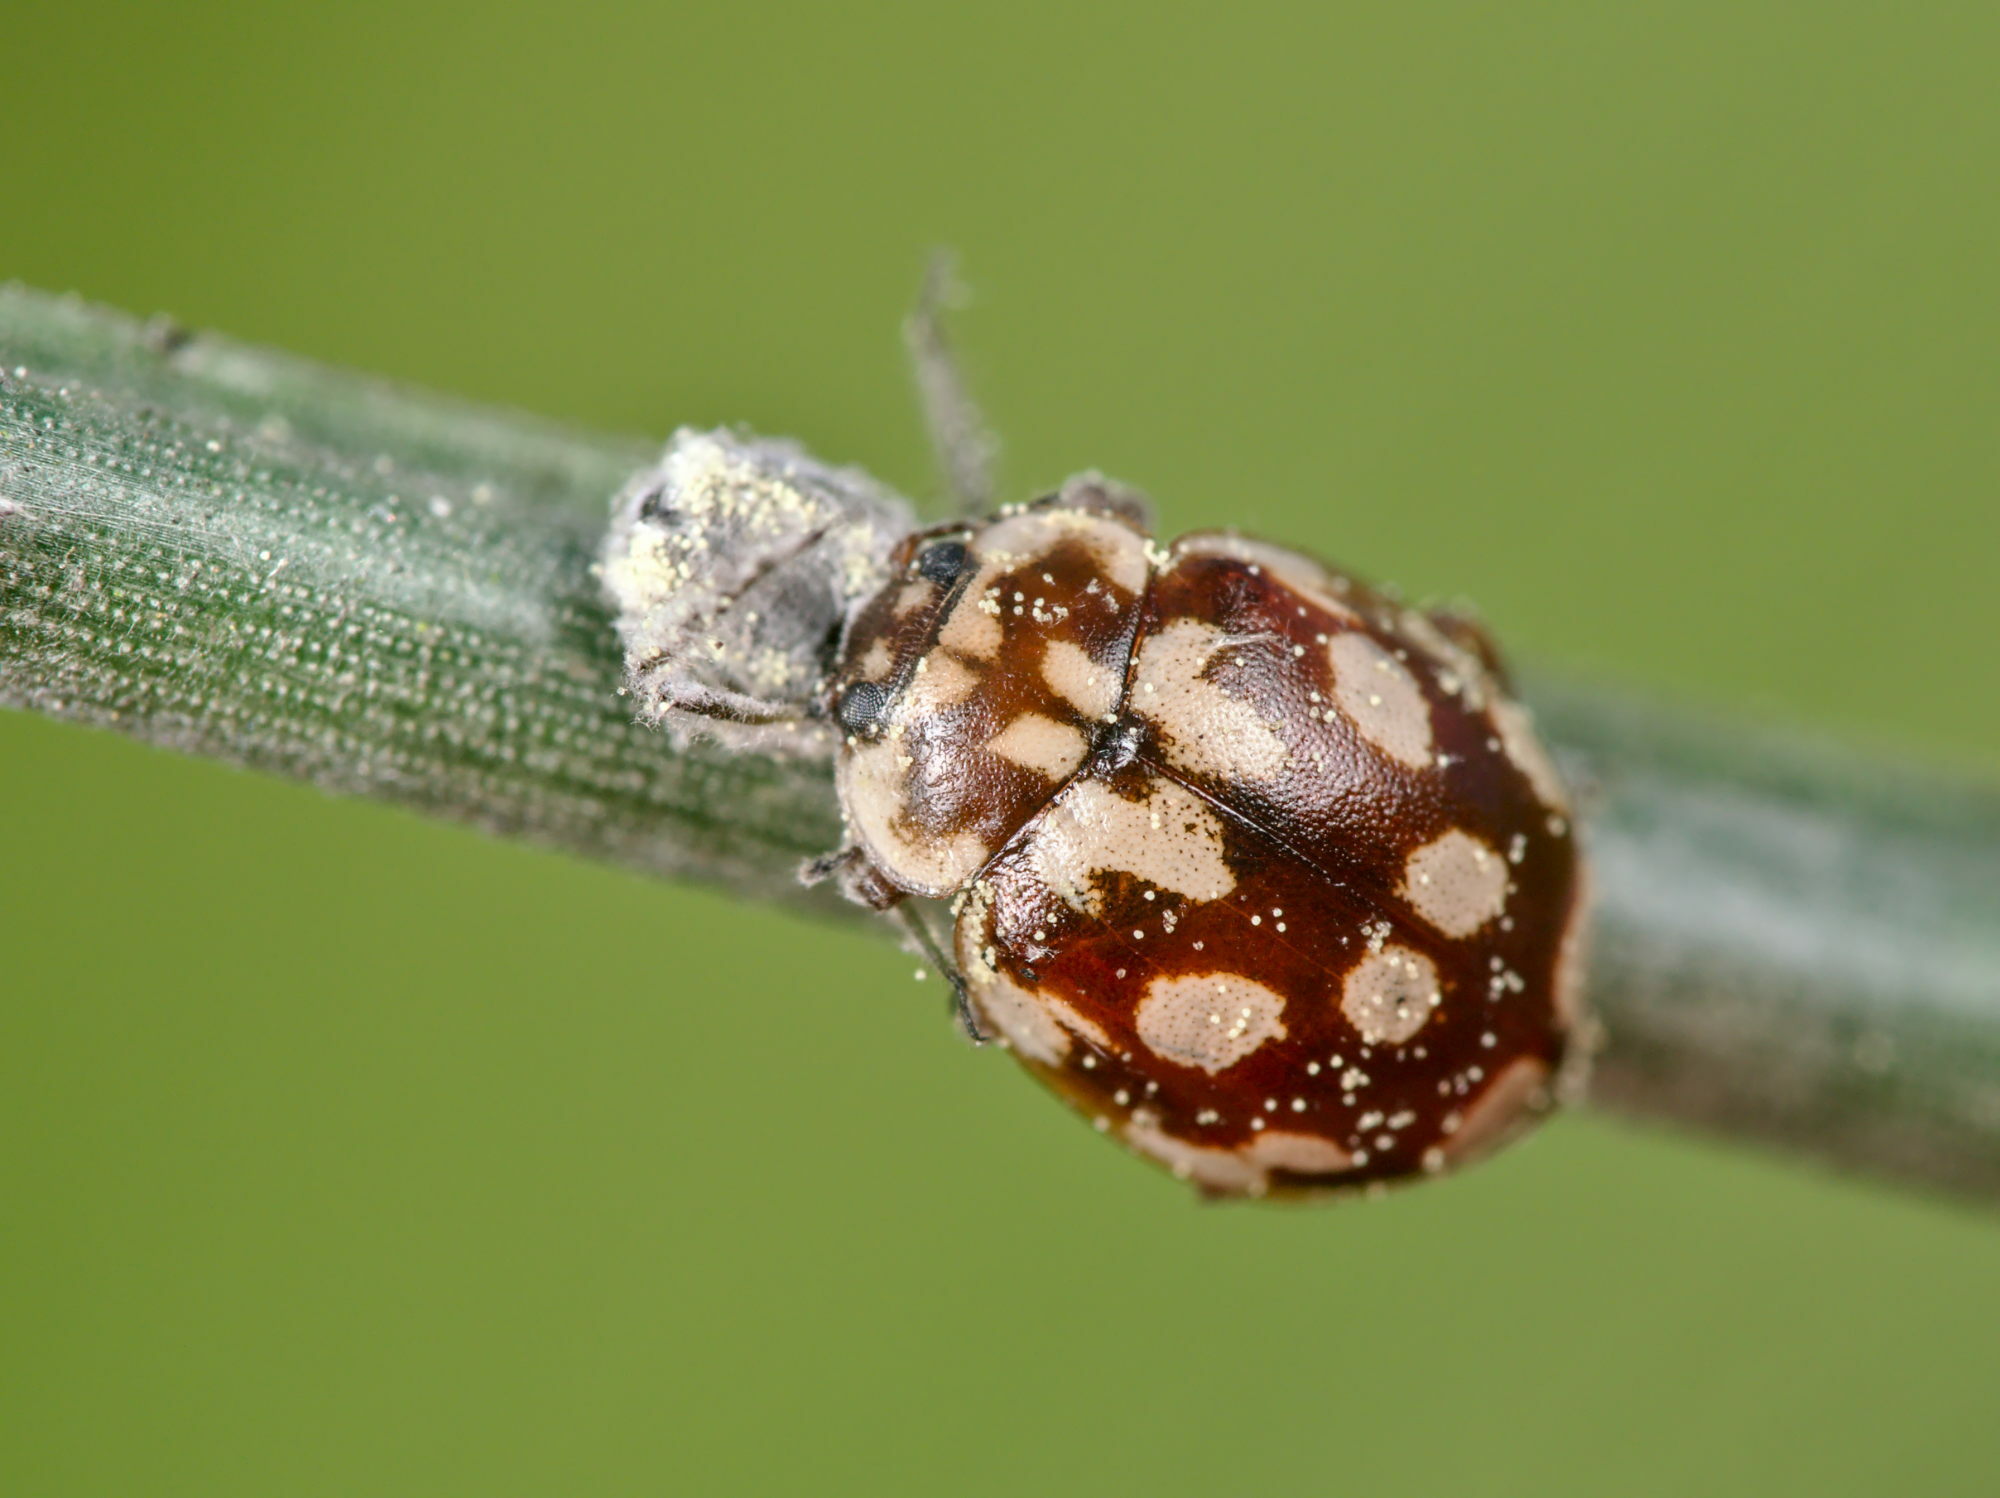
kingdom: Animalia
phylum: Arthropoda
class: Insecta
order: Coleoptera
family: Coccinellidae
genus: Myrrha
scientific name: Myrrha octodecimguttata
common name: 18-spot ladybird
